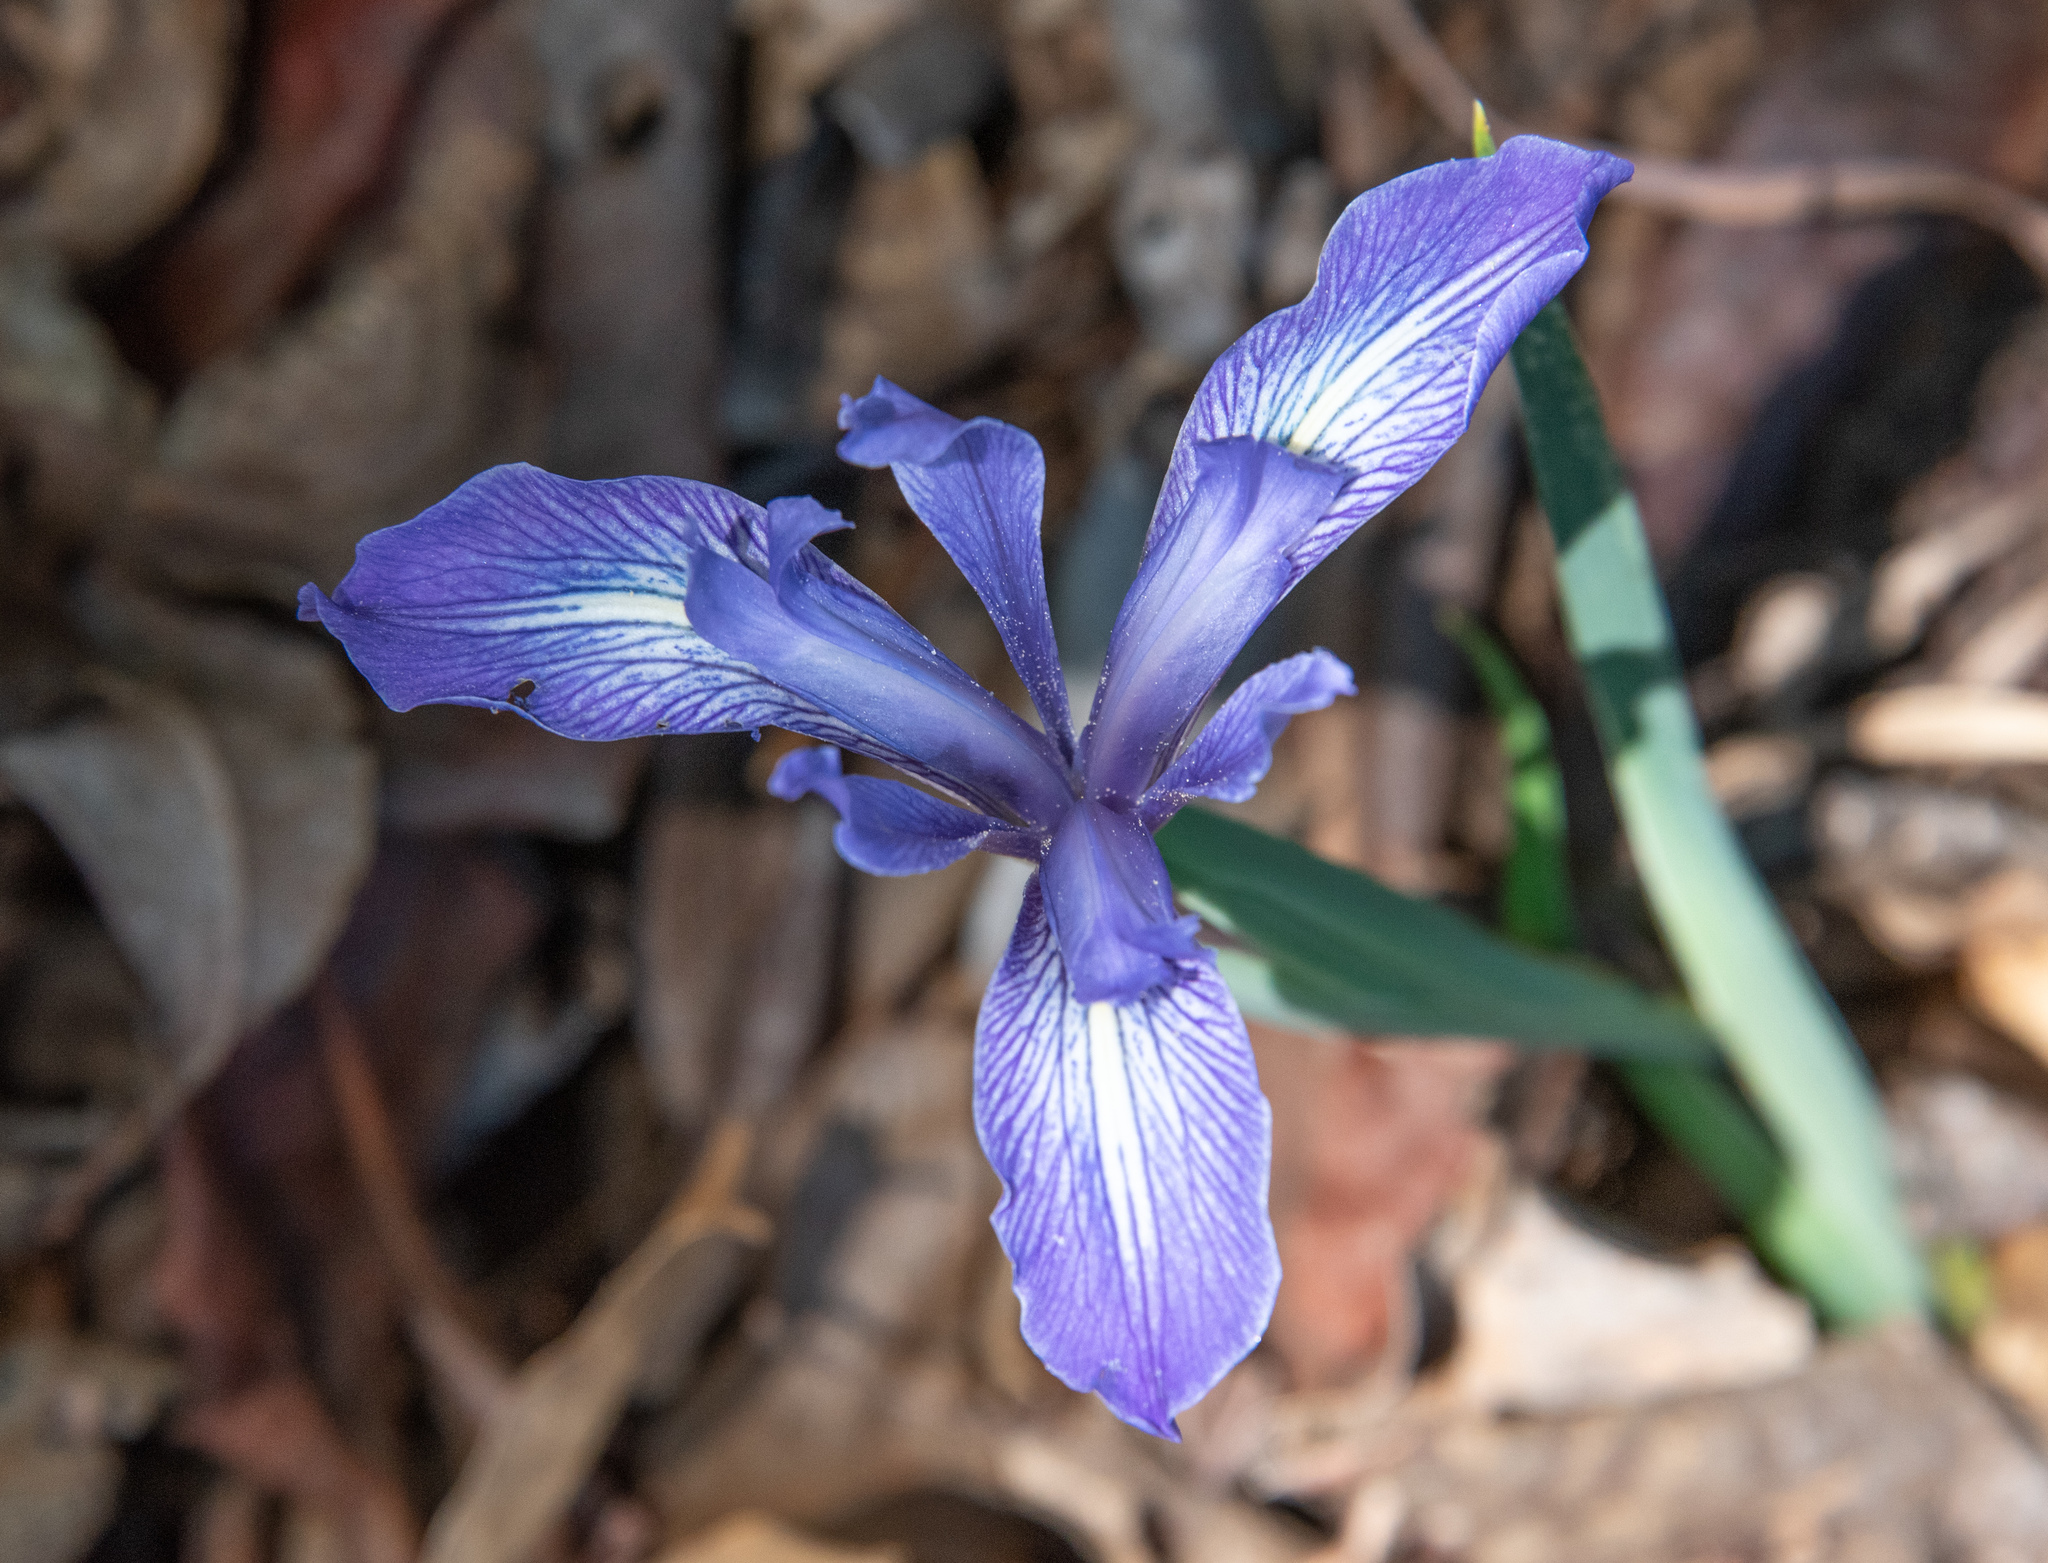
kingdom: Plantae
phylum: Tracheophyta
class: Liliopsida
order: Asparagales
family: Iridaceae
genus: Iris
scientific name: Iris macrosiphon
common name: Ground iris
